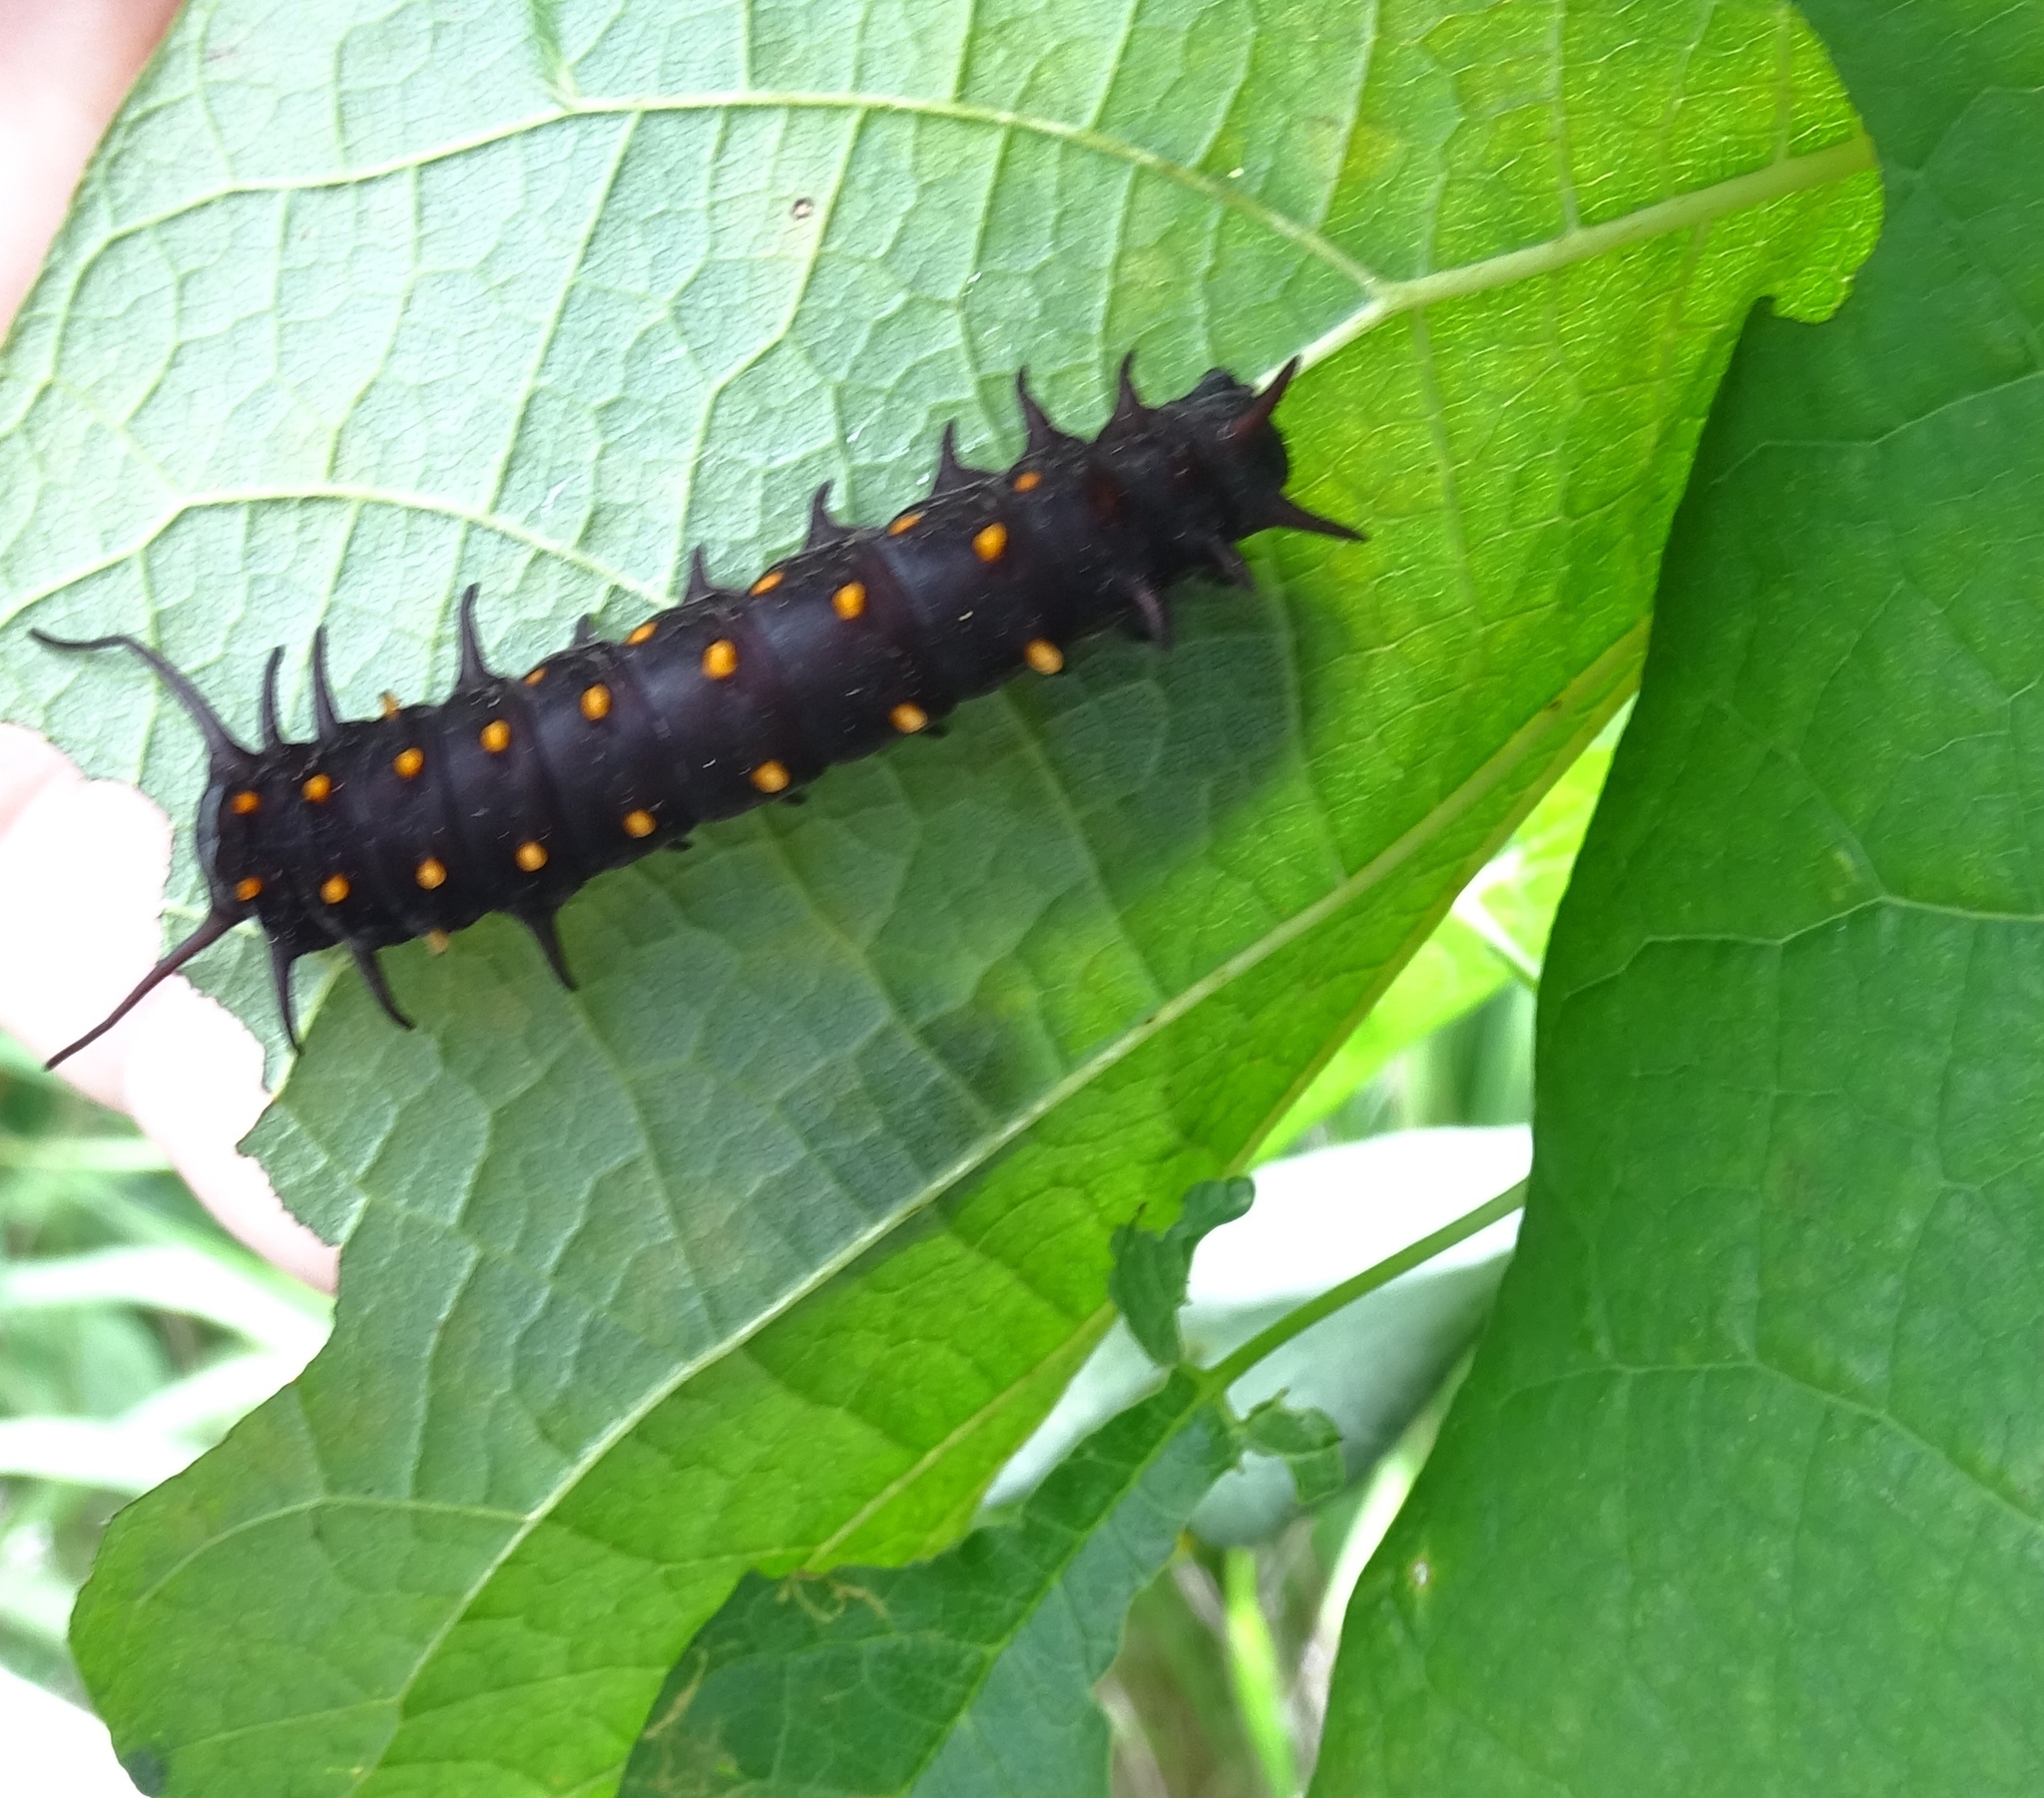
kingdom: Animalia
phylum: Arthropoda
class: Insecta
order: Lepidoptera
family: Papilionidae
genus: Battus
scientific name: Battus philenor
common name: Pipevine swallowtail
